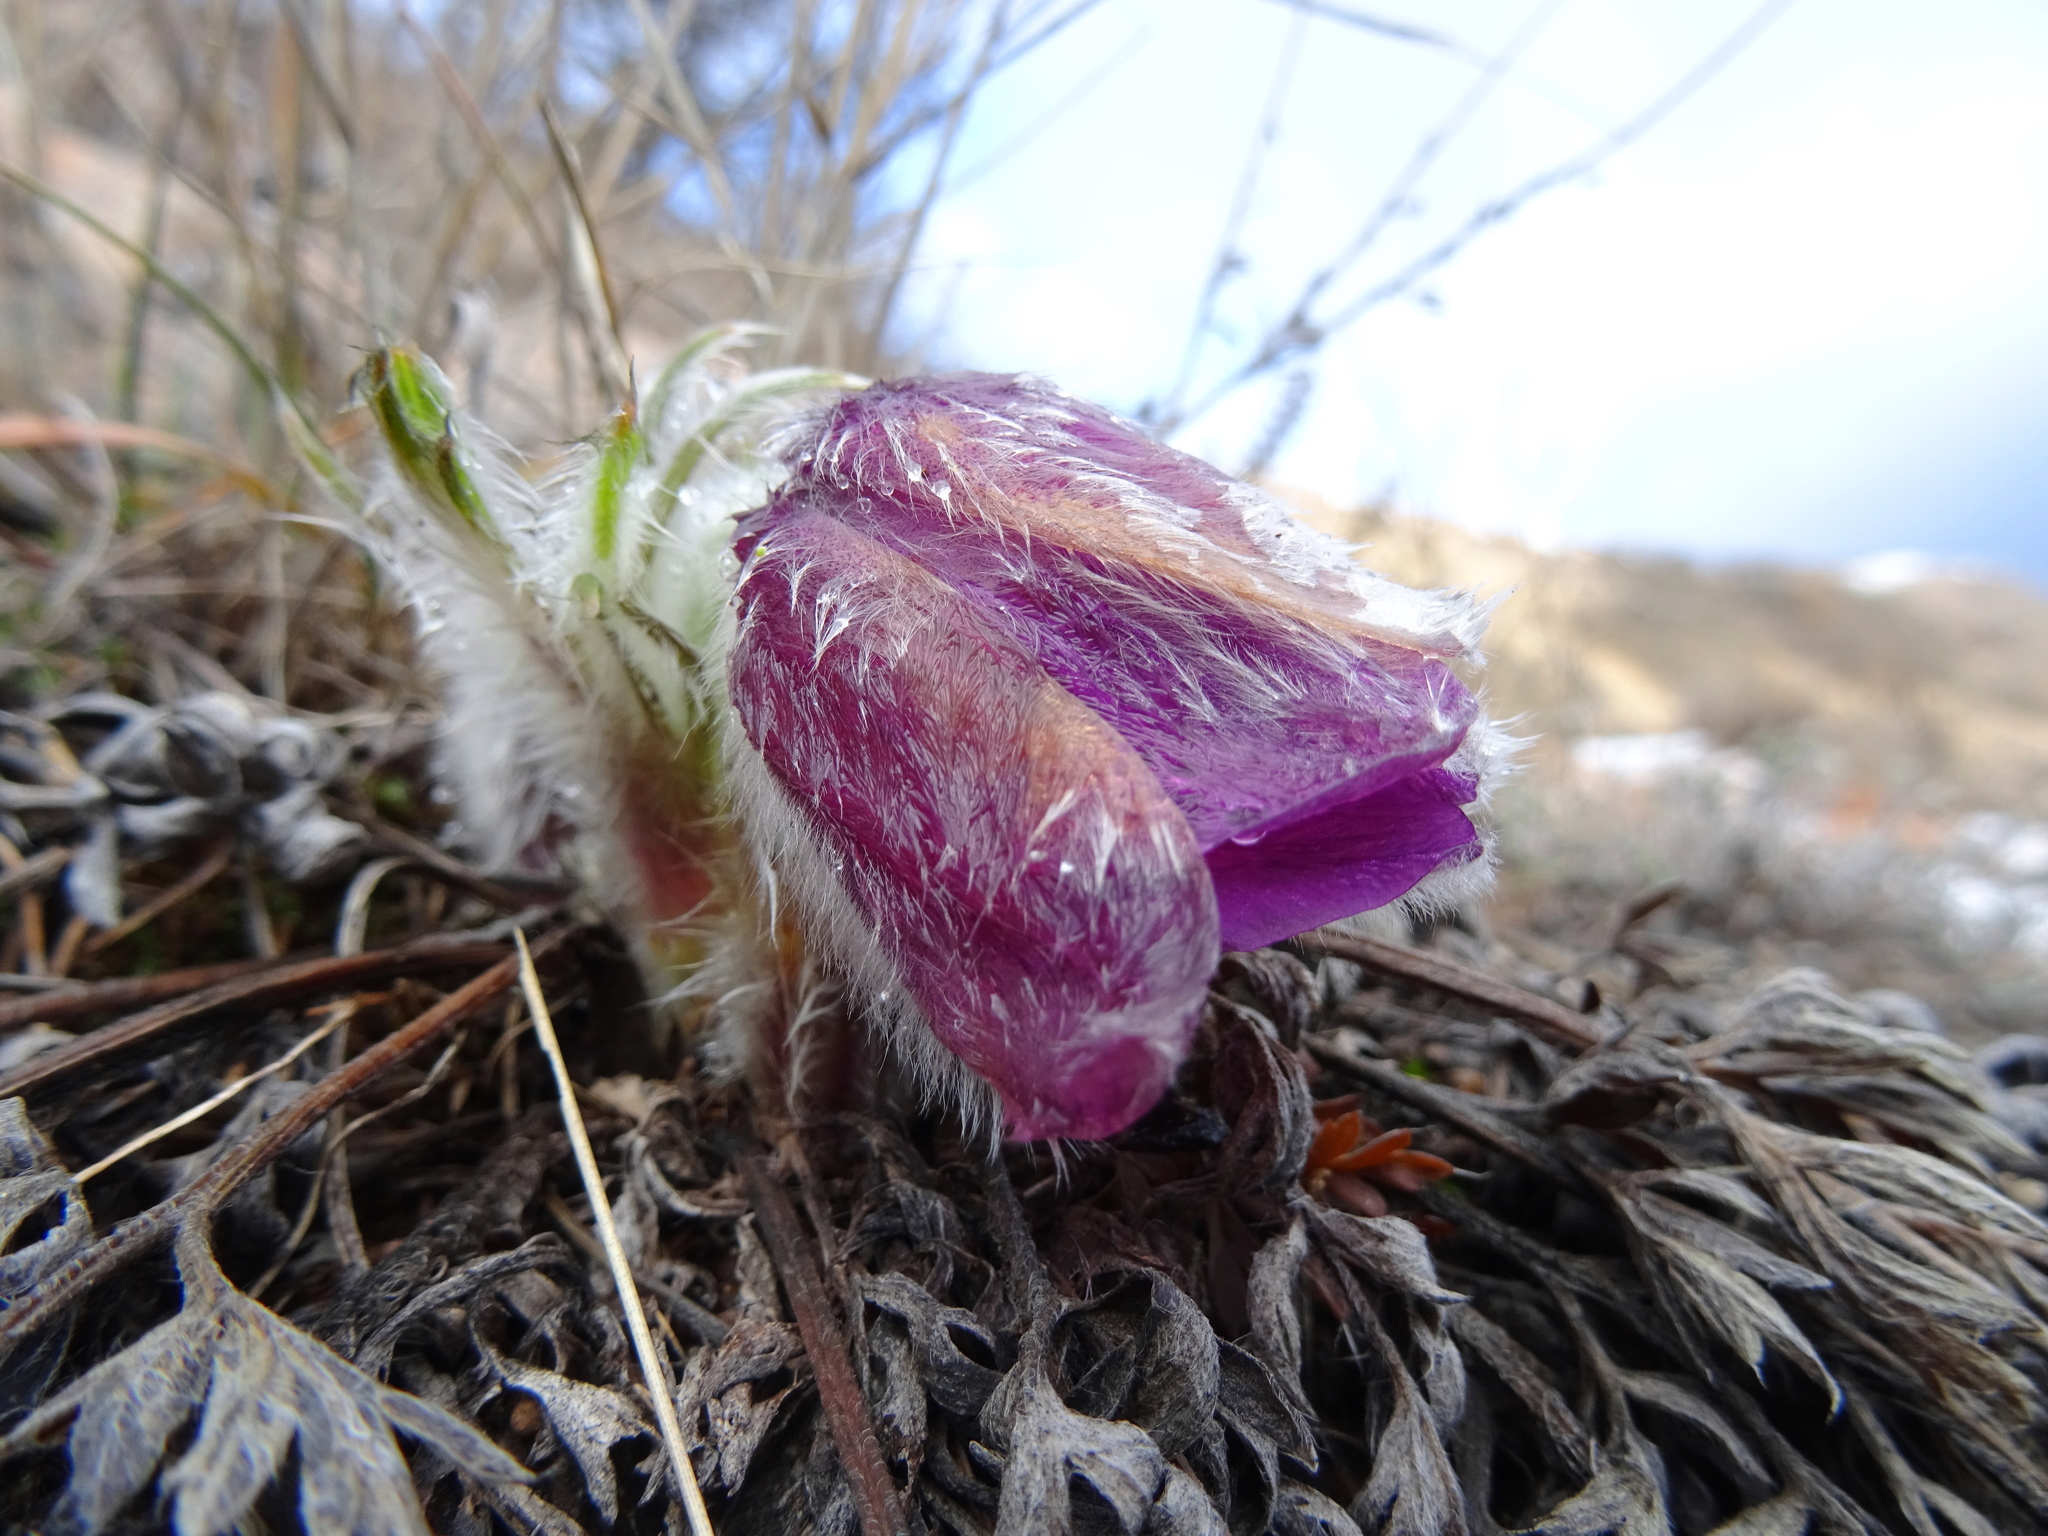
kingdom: Plantae
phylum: Tracheophyta
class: Magnoliopsida
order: Ranunculales
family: Ranunculaceae
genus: Pulsatilla
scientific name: Pulsatilla halleri
